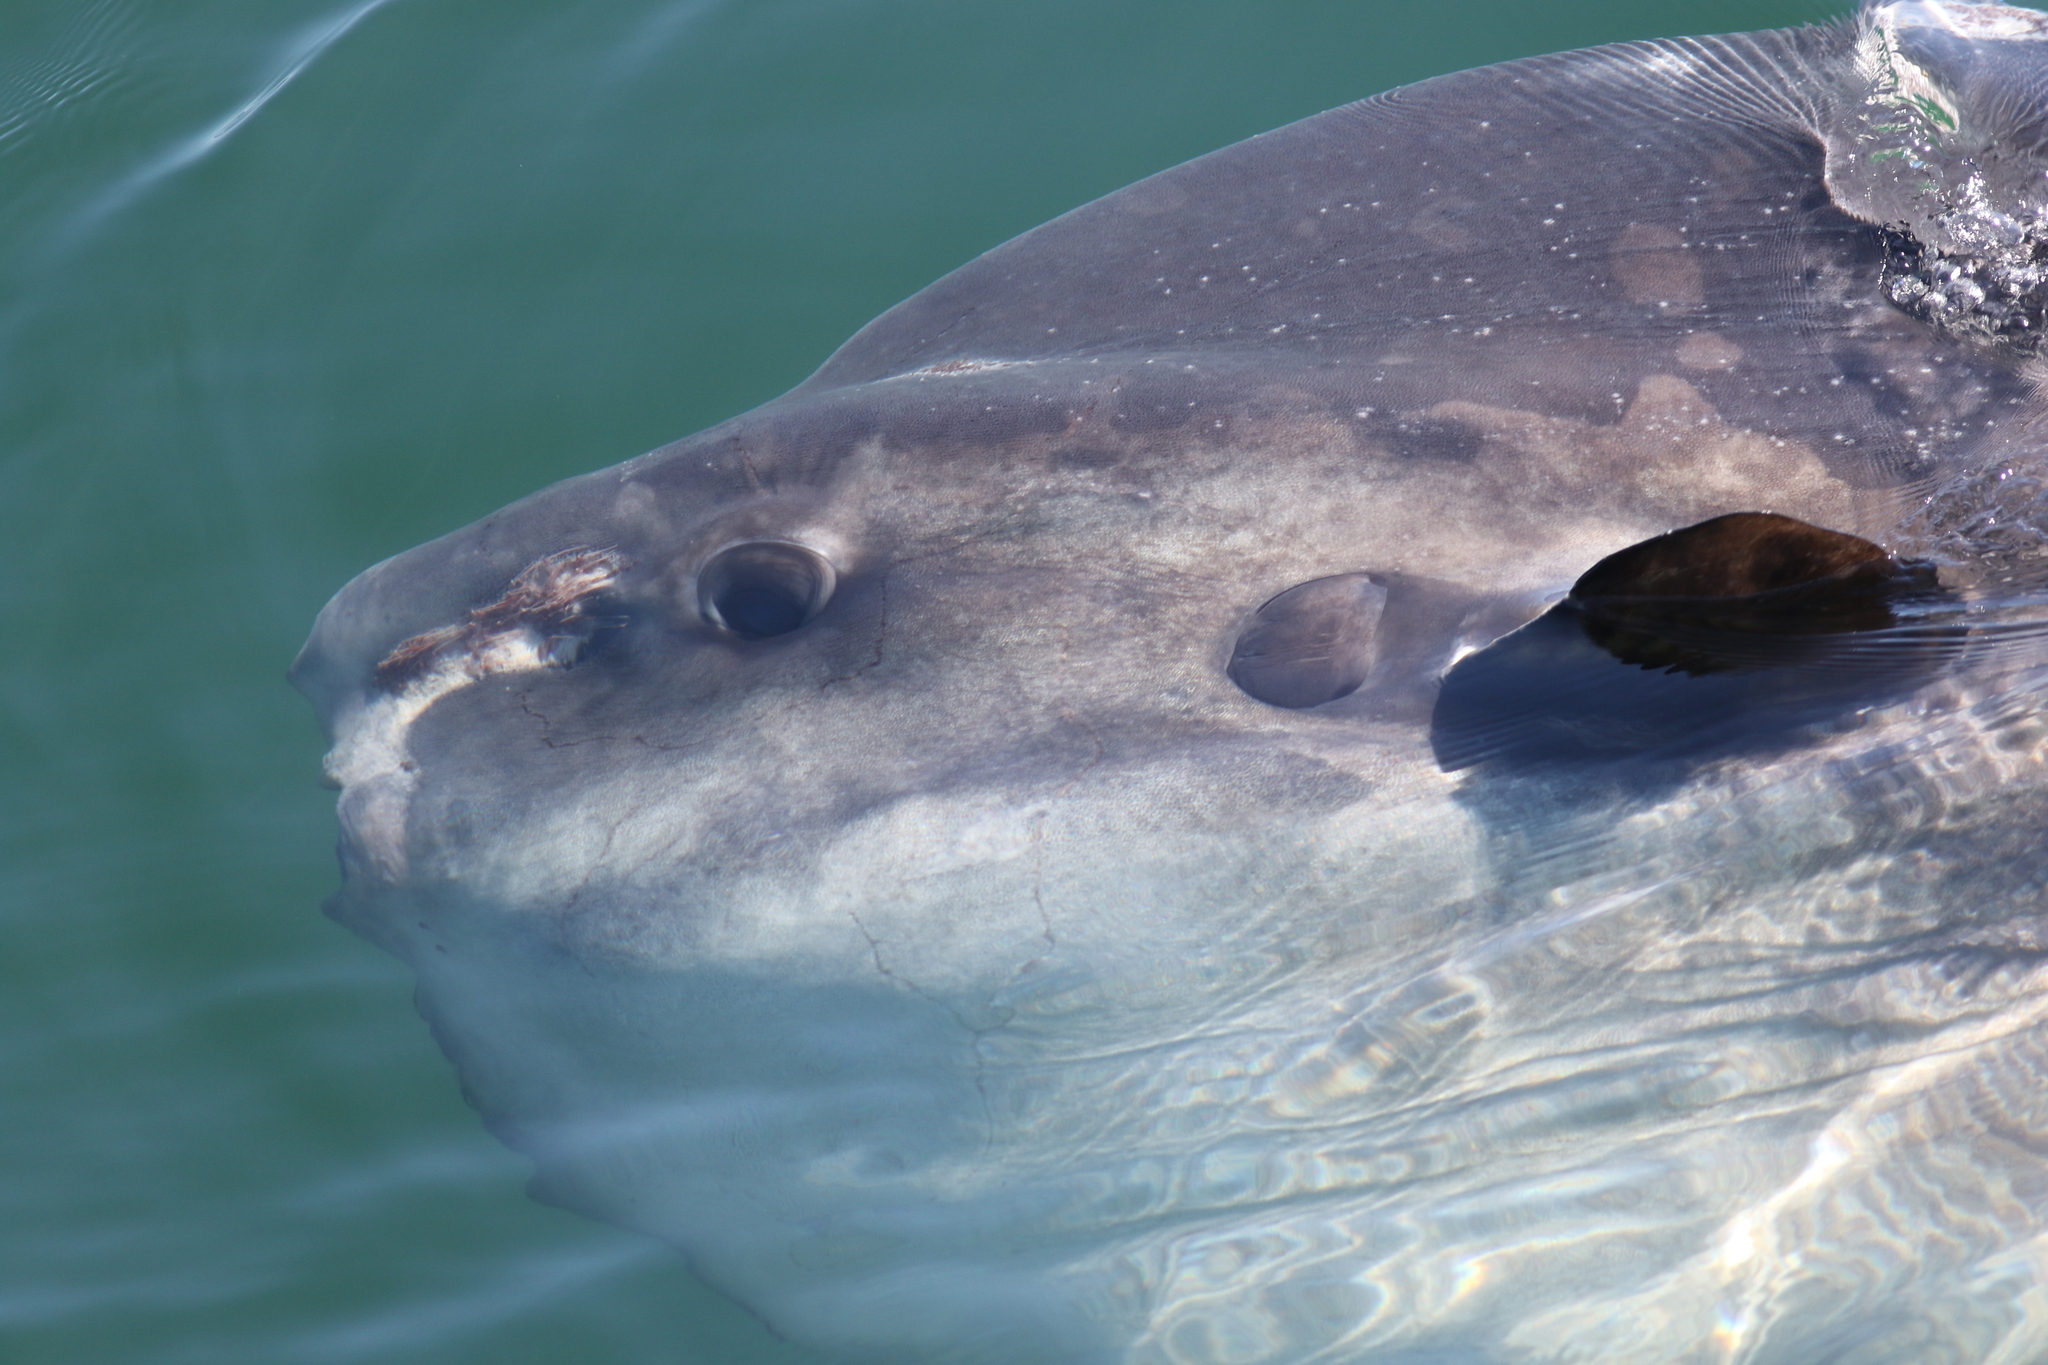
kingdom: Animalia
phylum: Chordata
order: Tetraodontiformes
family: Molidae
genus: Mola
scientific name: Mola mola
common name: Ocean sunfish
